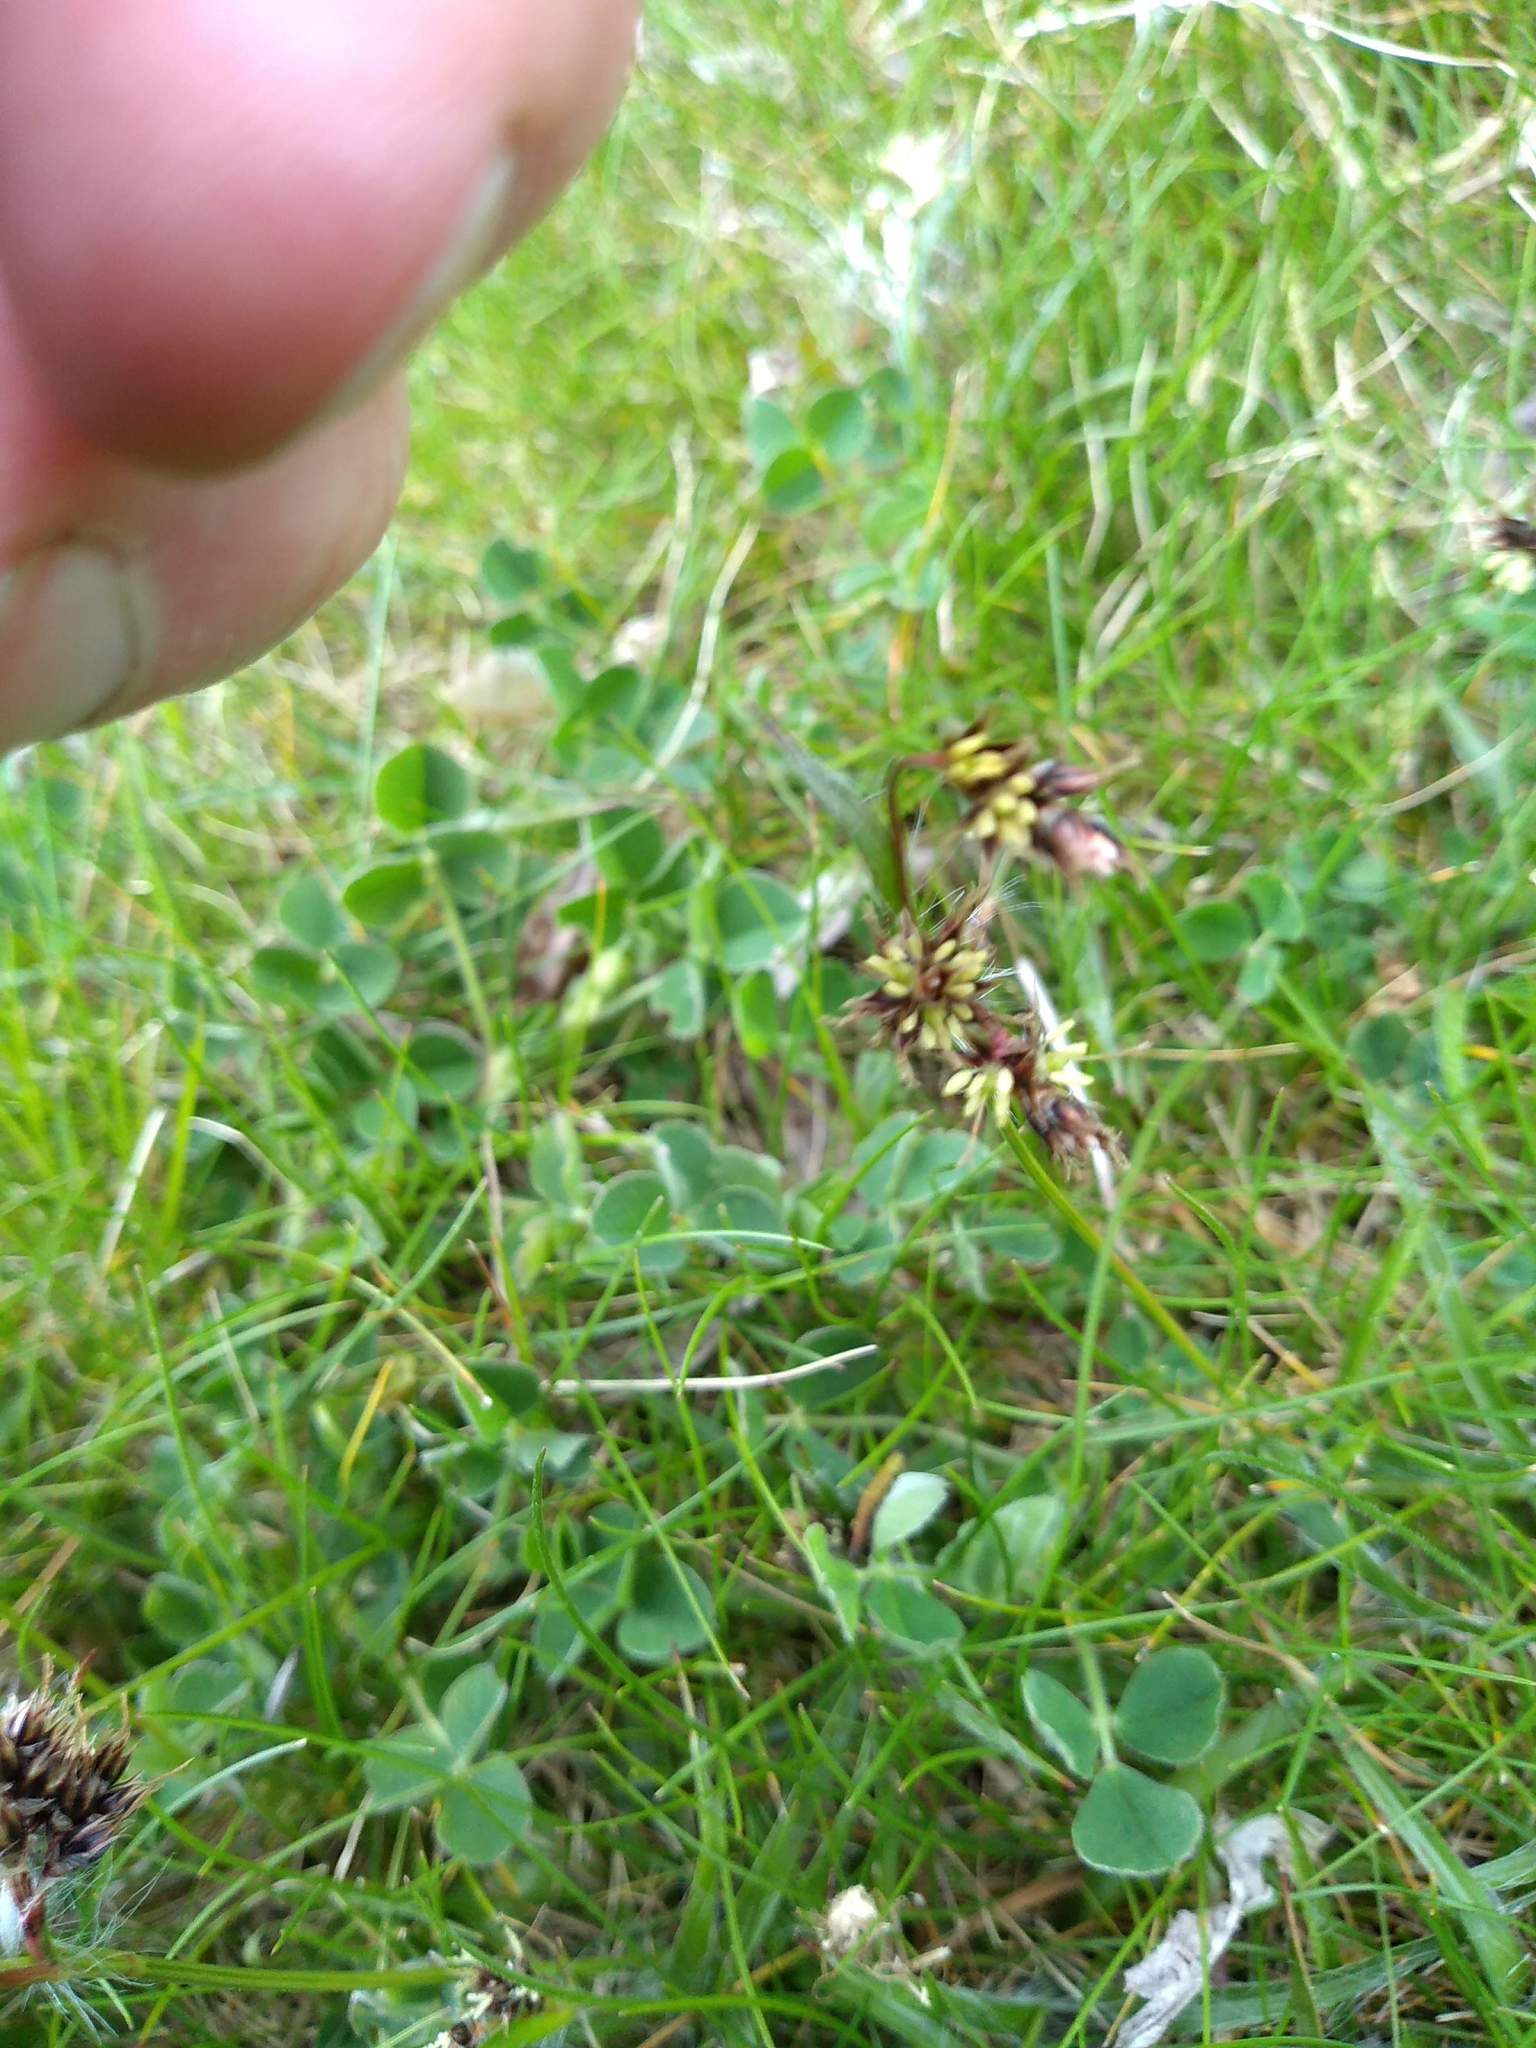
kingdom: Plantae
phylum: Tracheophyta
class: Liliopsida
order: Poales
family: Juncaceae
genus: Luzula
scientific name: Luzula campestris
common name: Field wood-rush
